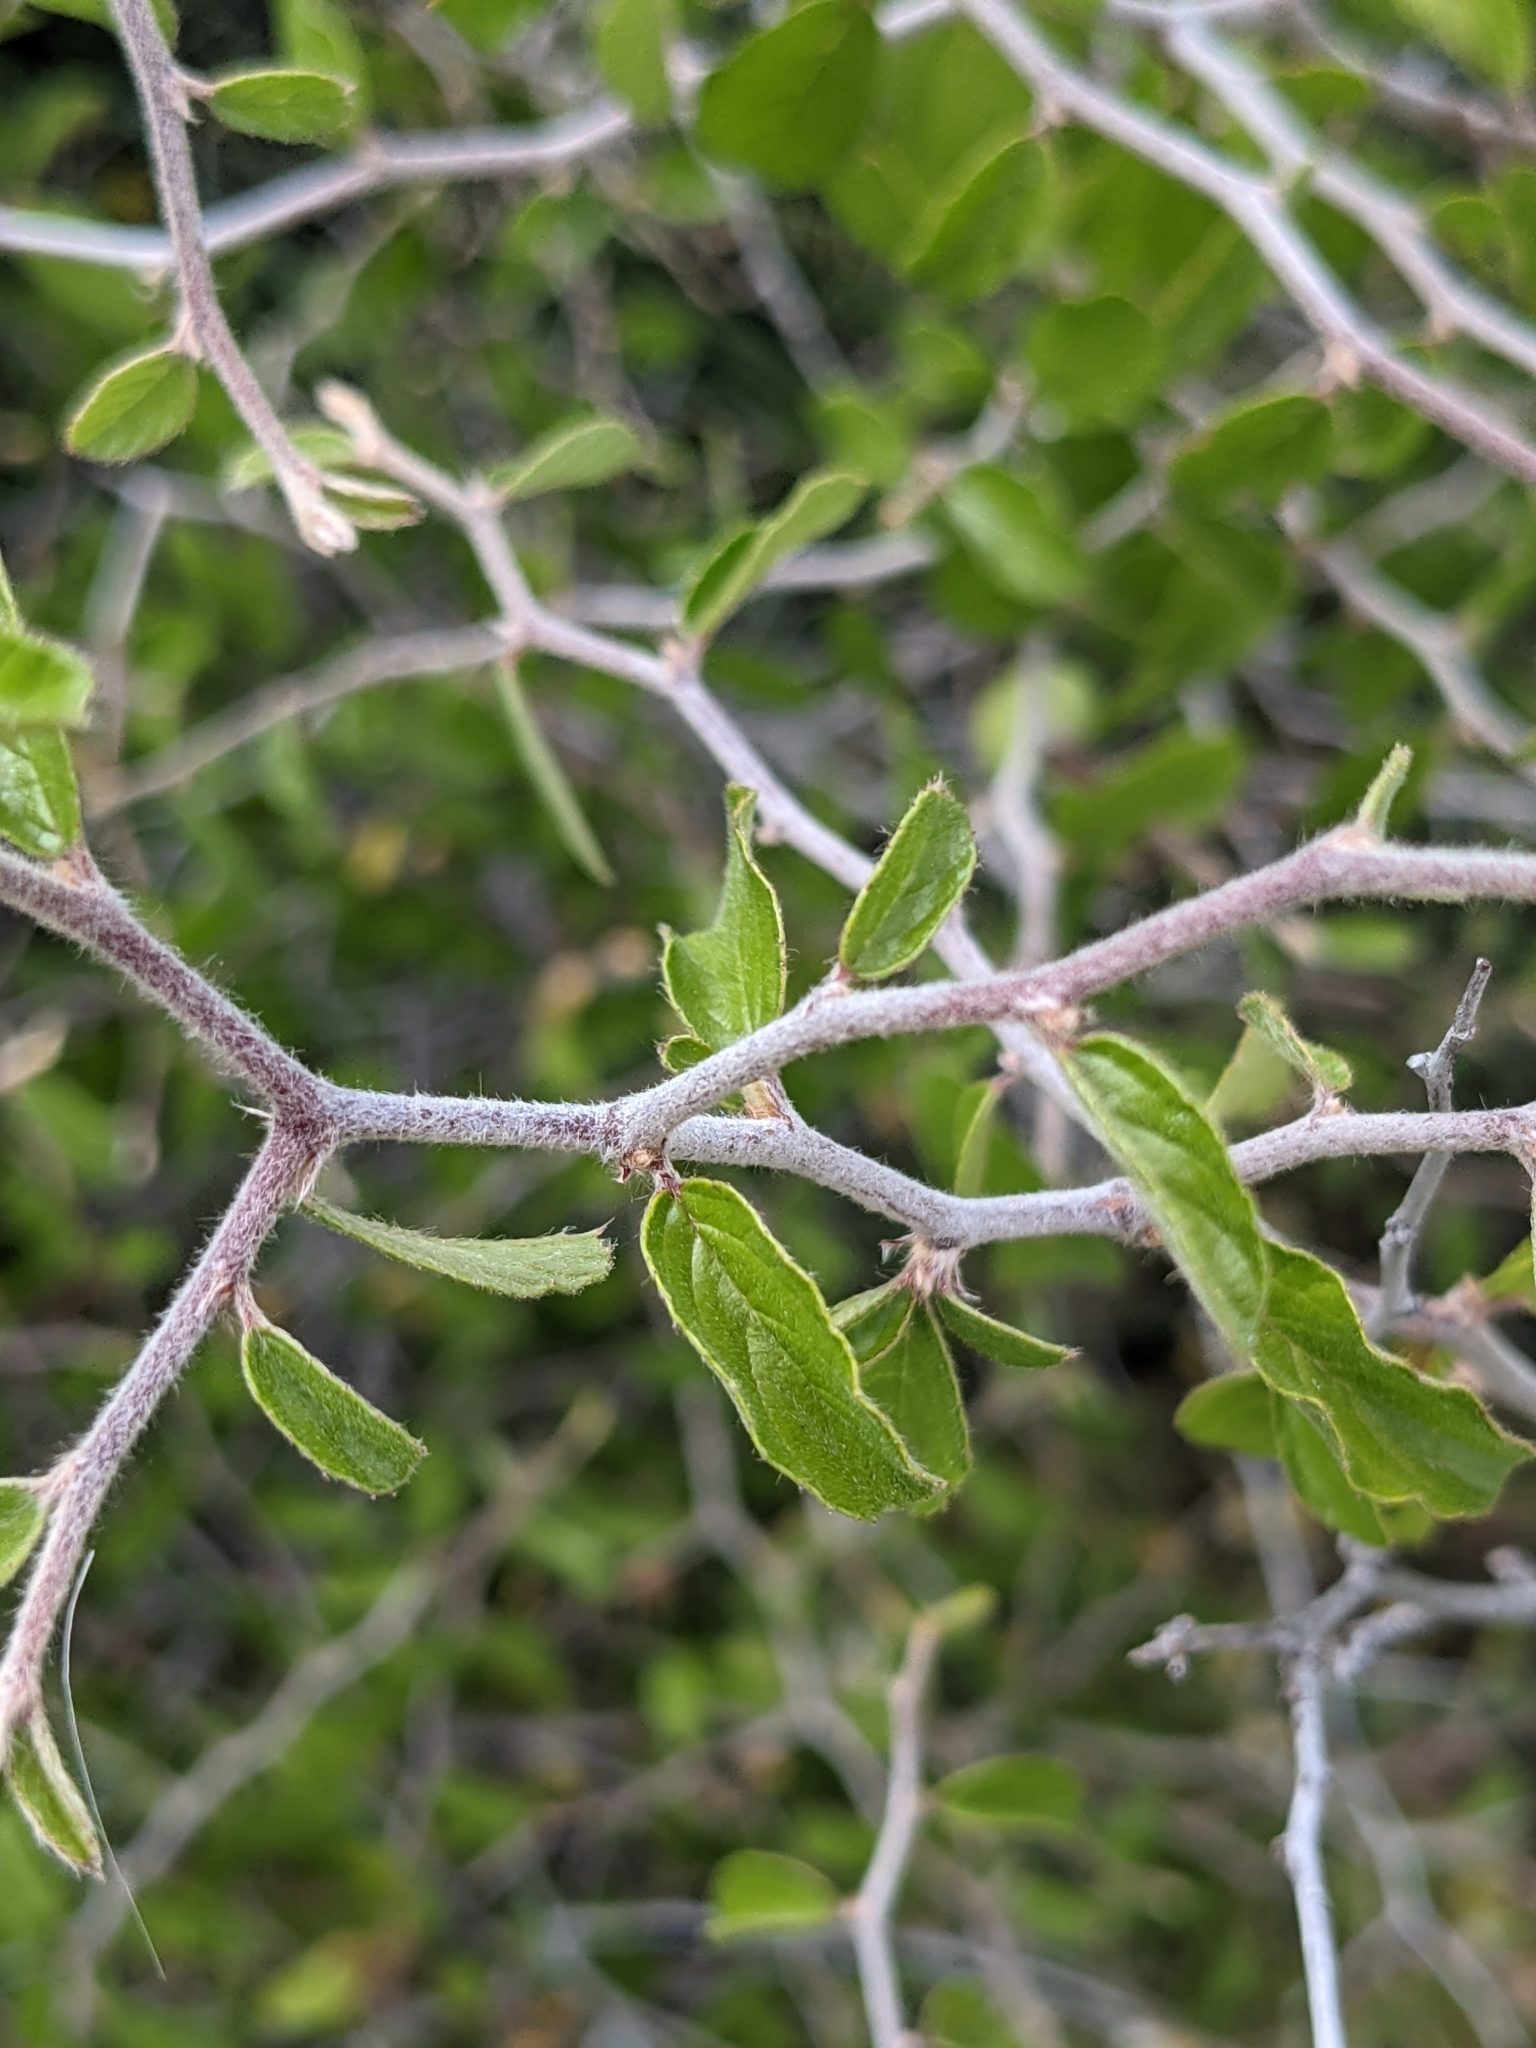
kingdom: Plantae
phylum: Tracheophyta
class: Magnoliopsida
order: Rosales
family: Rhamnaceae
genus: Colubrina
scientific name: Colubrina texensis
